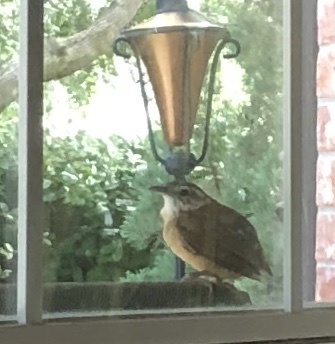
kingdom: Animalia
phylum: Chordata
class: Aves
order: Passeriformes
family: Troglodytidae
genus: Thryothorus
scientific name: Thryothorus ludovicianus
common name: Carolina wren
